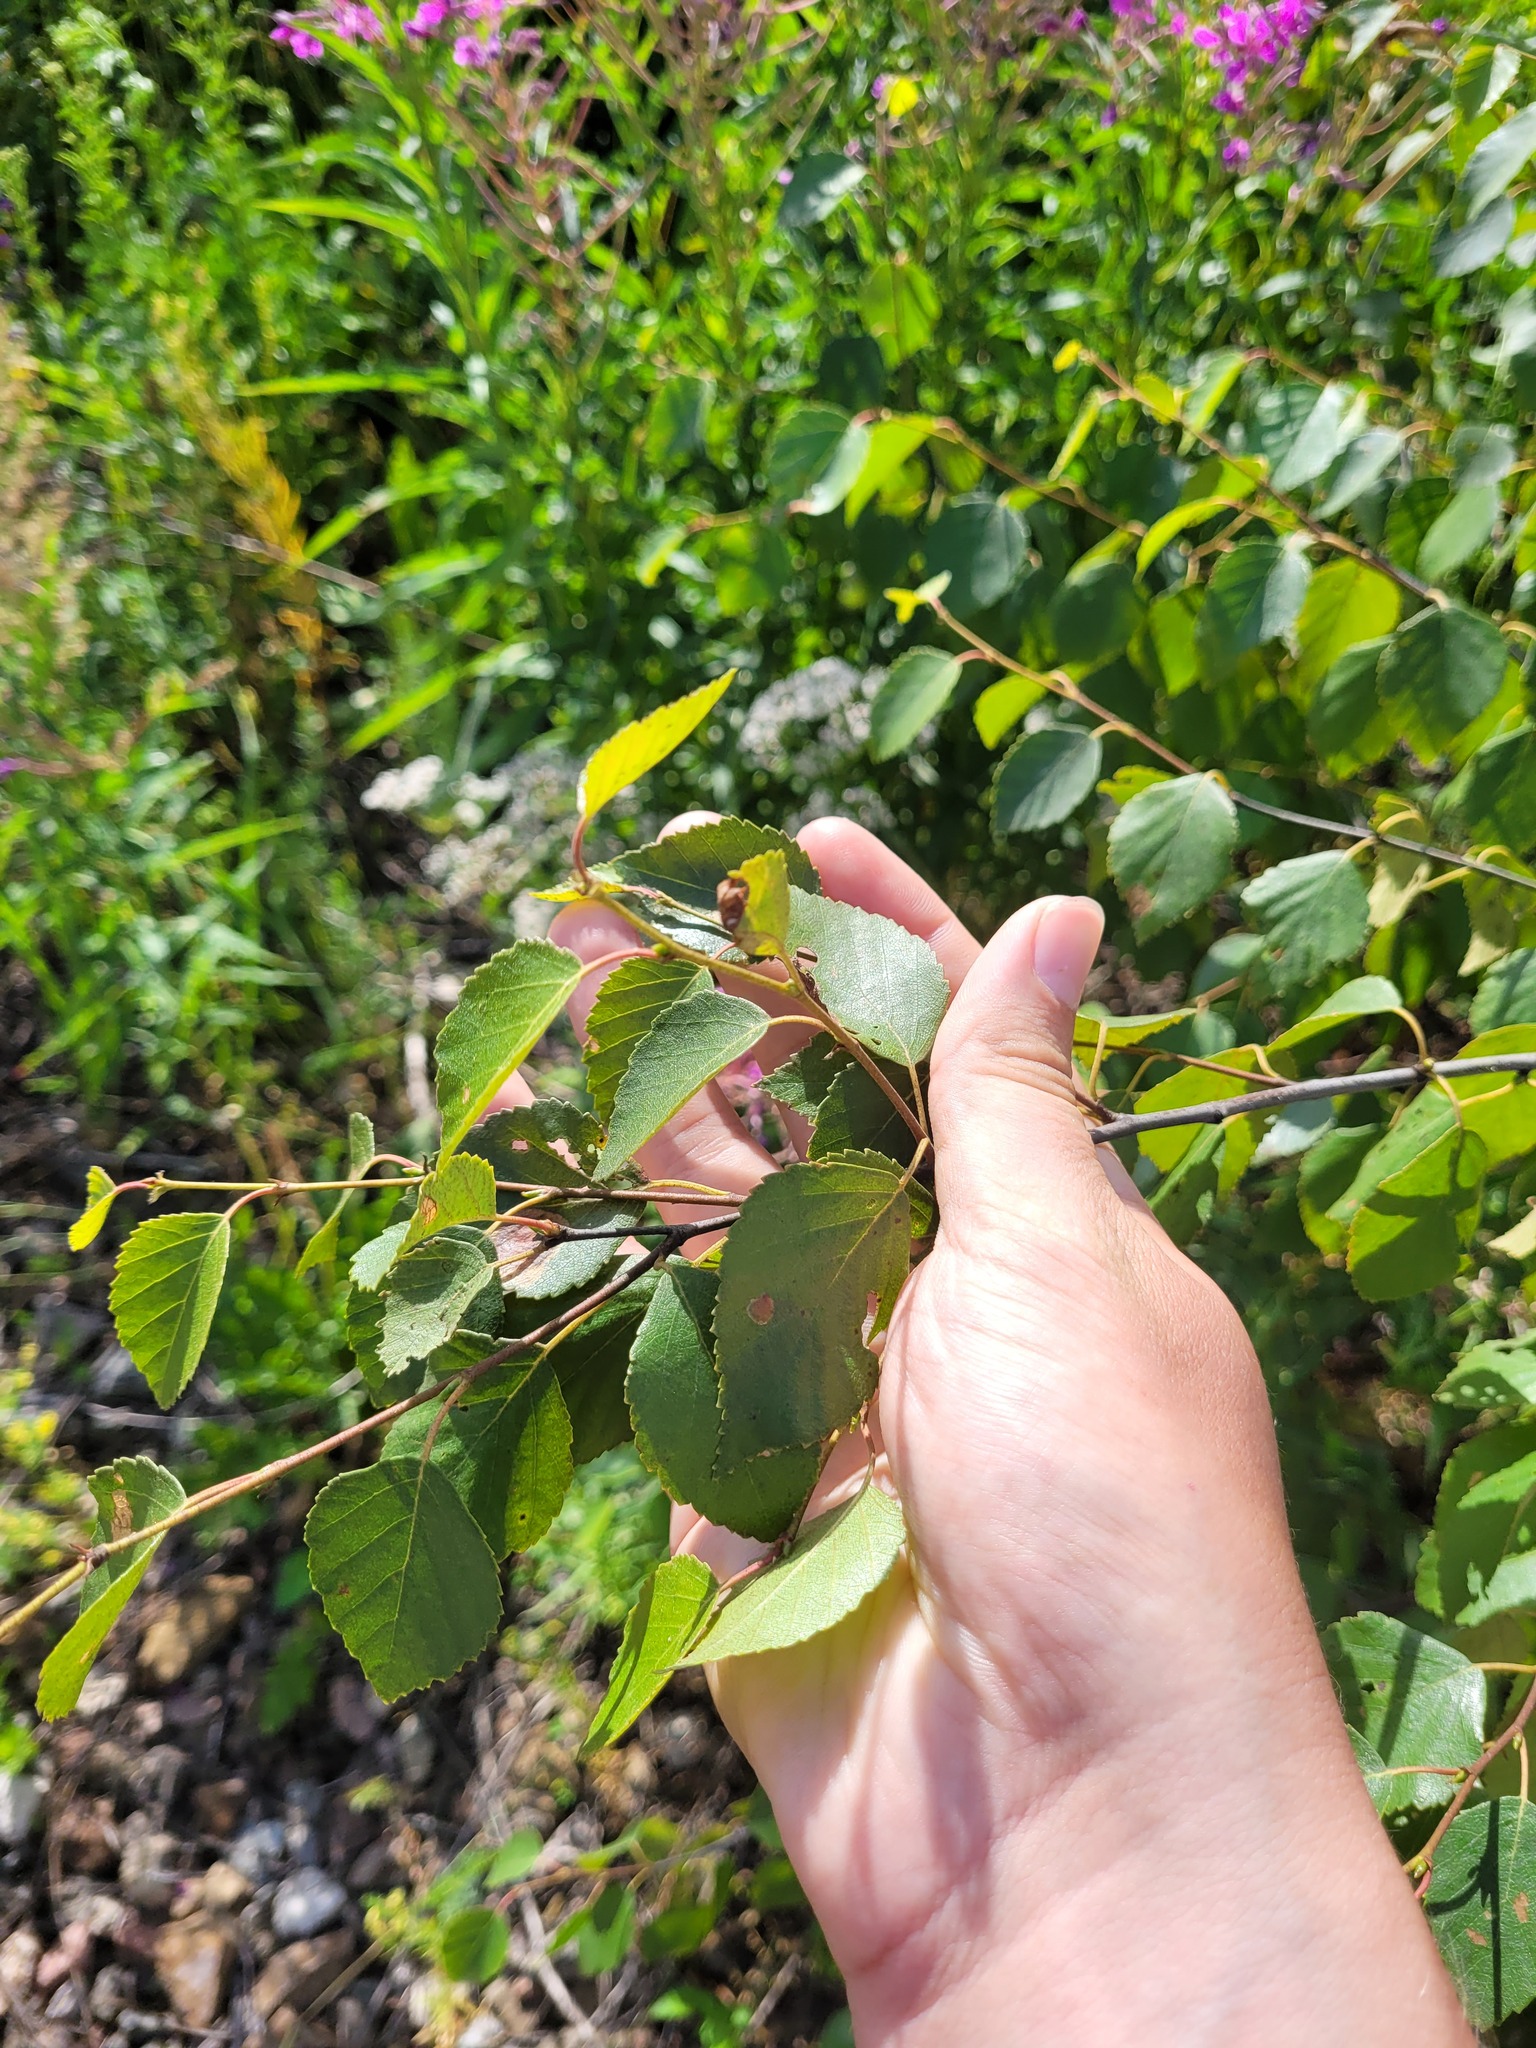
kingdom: Plantae
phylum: Tracheophyta
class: Magnoliopsida
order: Fagales
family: Betulaceae
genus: Betula
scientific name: Betula pendula
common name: Silver birch
